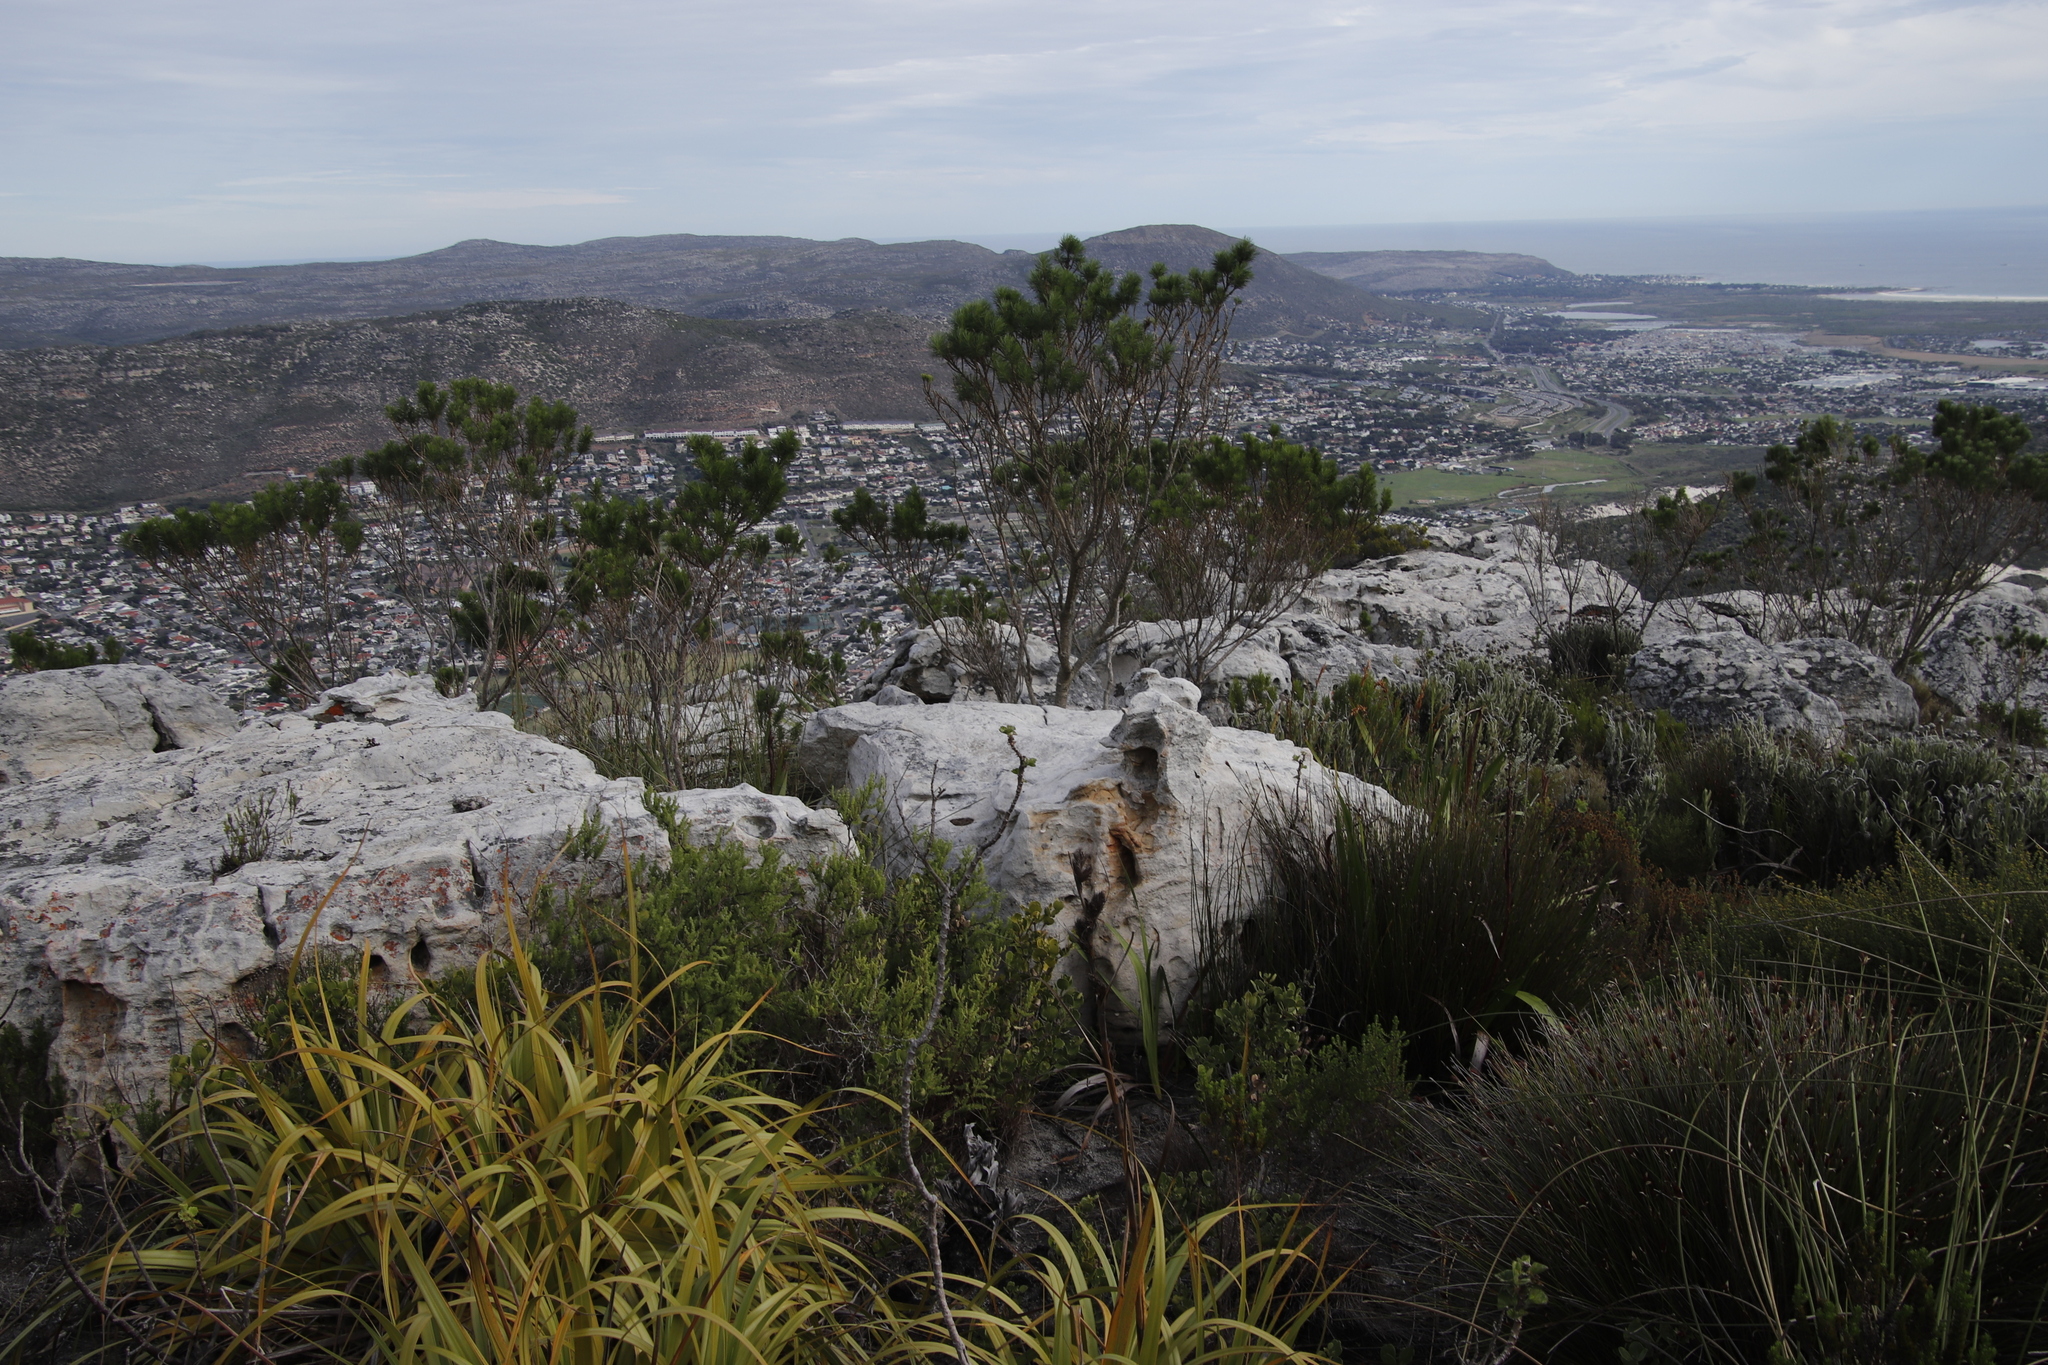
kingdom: Plantae
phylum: Tracheophyta
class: Magnoliopsida
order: Fabales
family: Fabaceae
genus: Psoralea
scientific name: Psoralea pinnata
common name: African scurfpea
